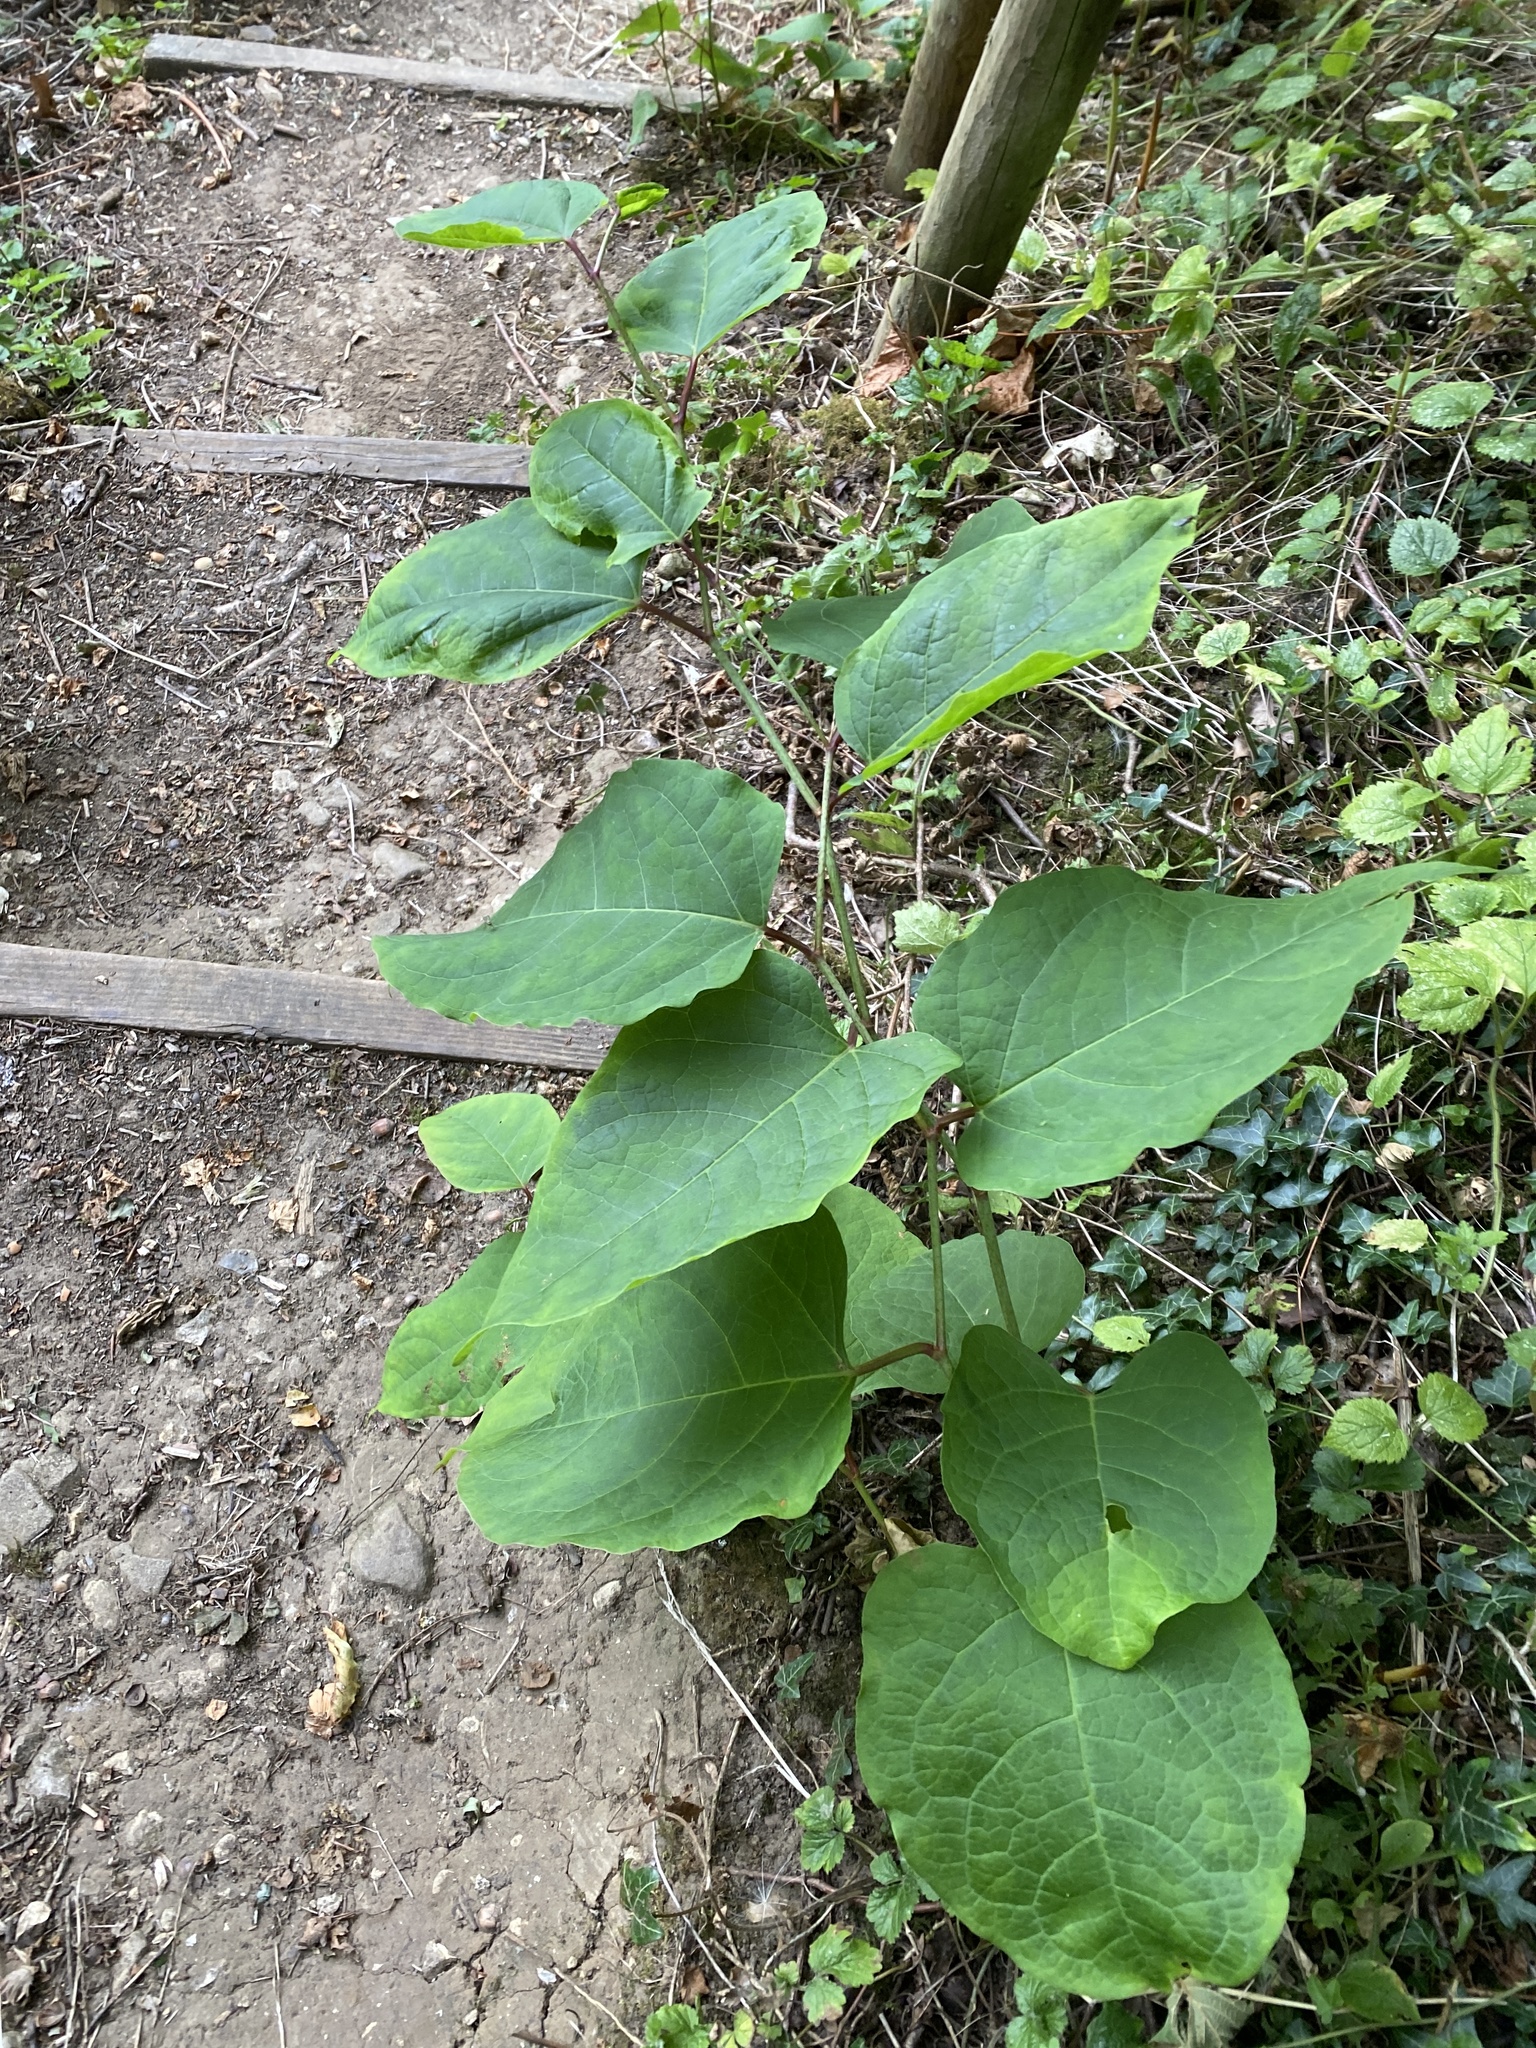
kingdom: Plantae
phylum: Tracheophyta
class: Magnoliopsida
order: Caryophyllales
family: Polygonaceae
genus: Reynoutria
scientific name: Reynoutria japonica
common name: Japanese knotweed
